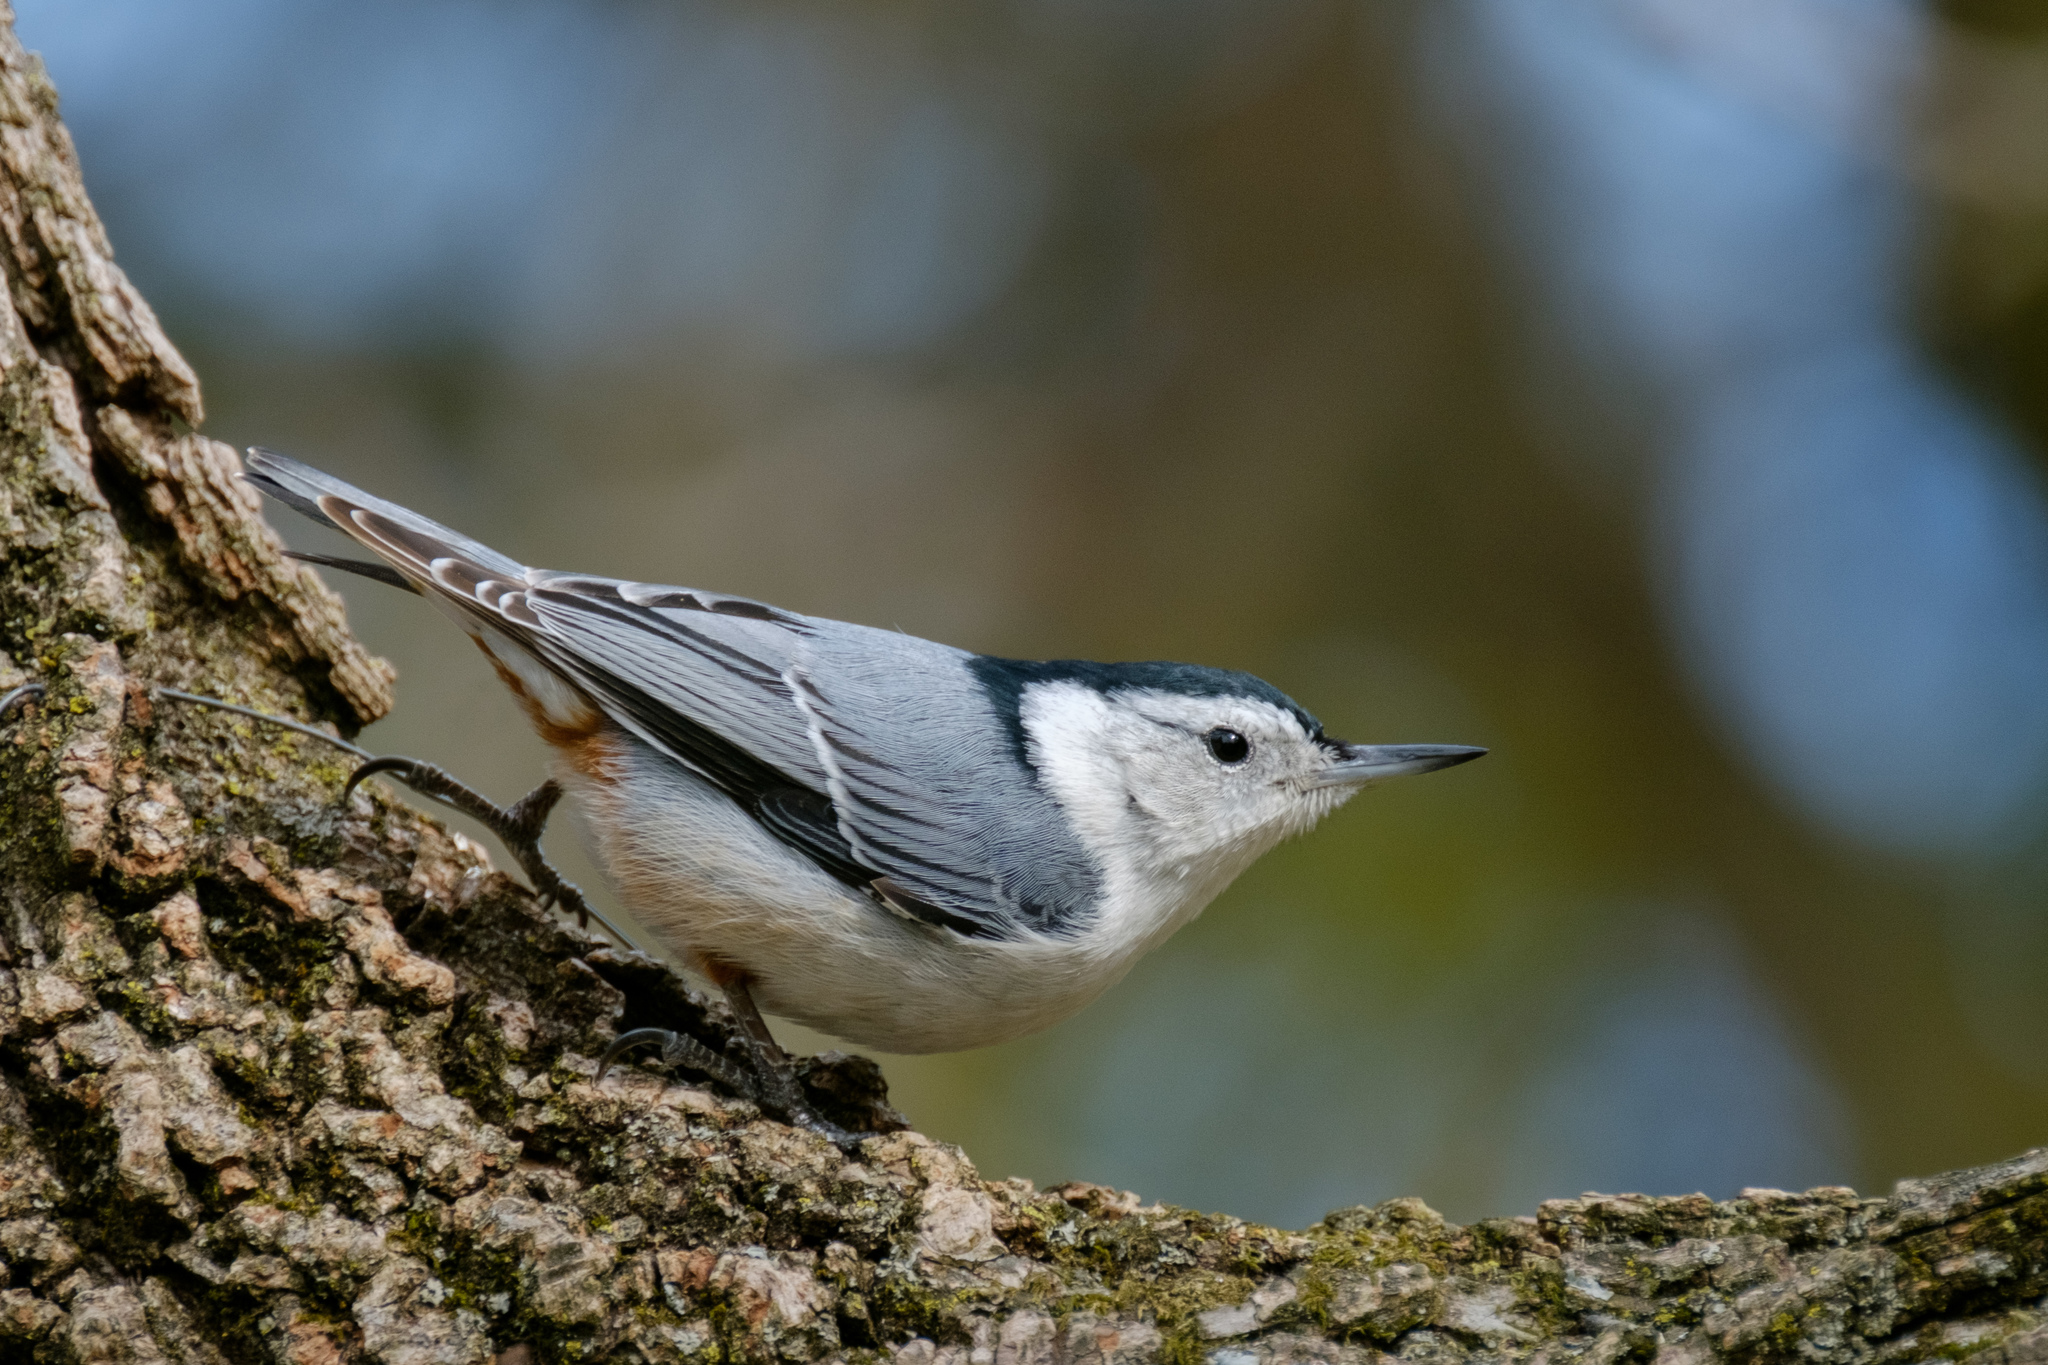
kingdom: Animalia
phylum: Chordata
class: Aves
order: Passeriformes
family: Sittidae
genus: Sitta
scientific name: Sitta carolinensis
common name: White-breasted nuthatch
